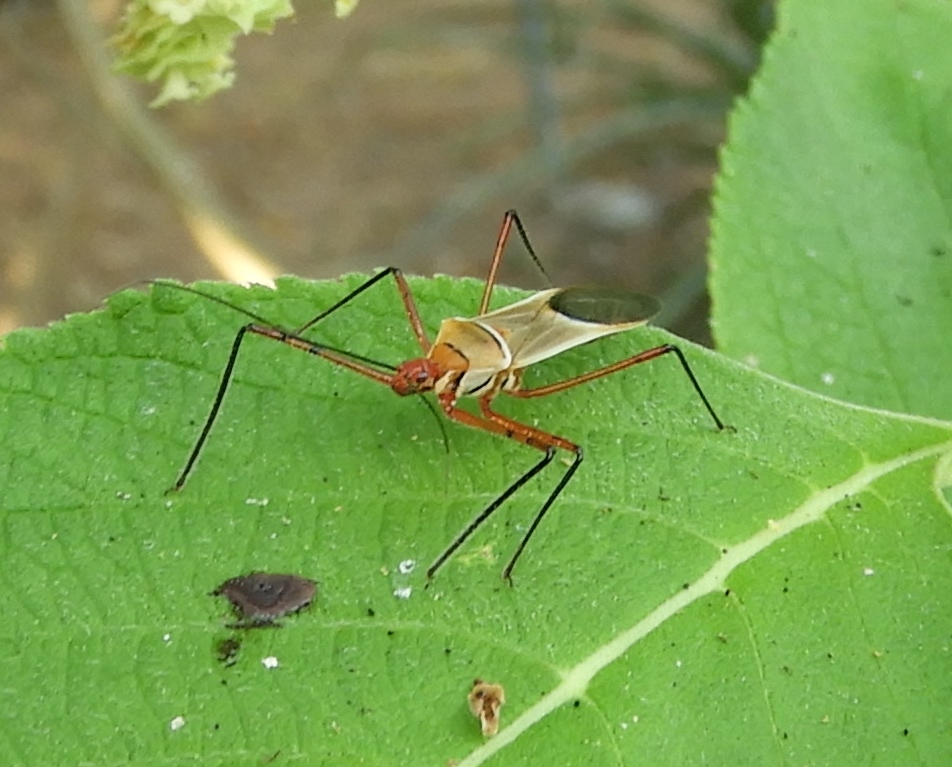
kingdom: Animalia
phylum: Arthropoda
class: Insecta
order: Hemiptera
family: Reduviidae
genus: Zelus
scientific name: Zelus grassans
